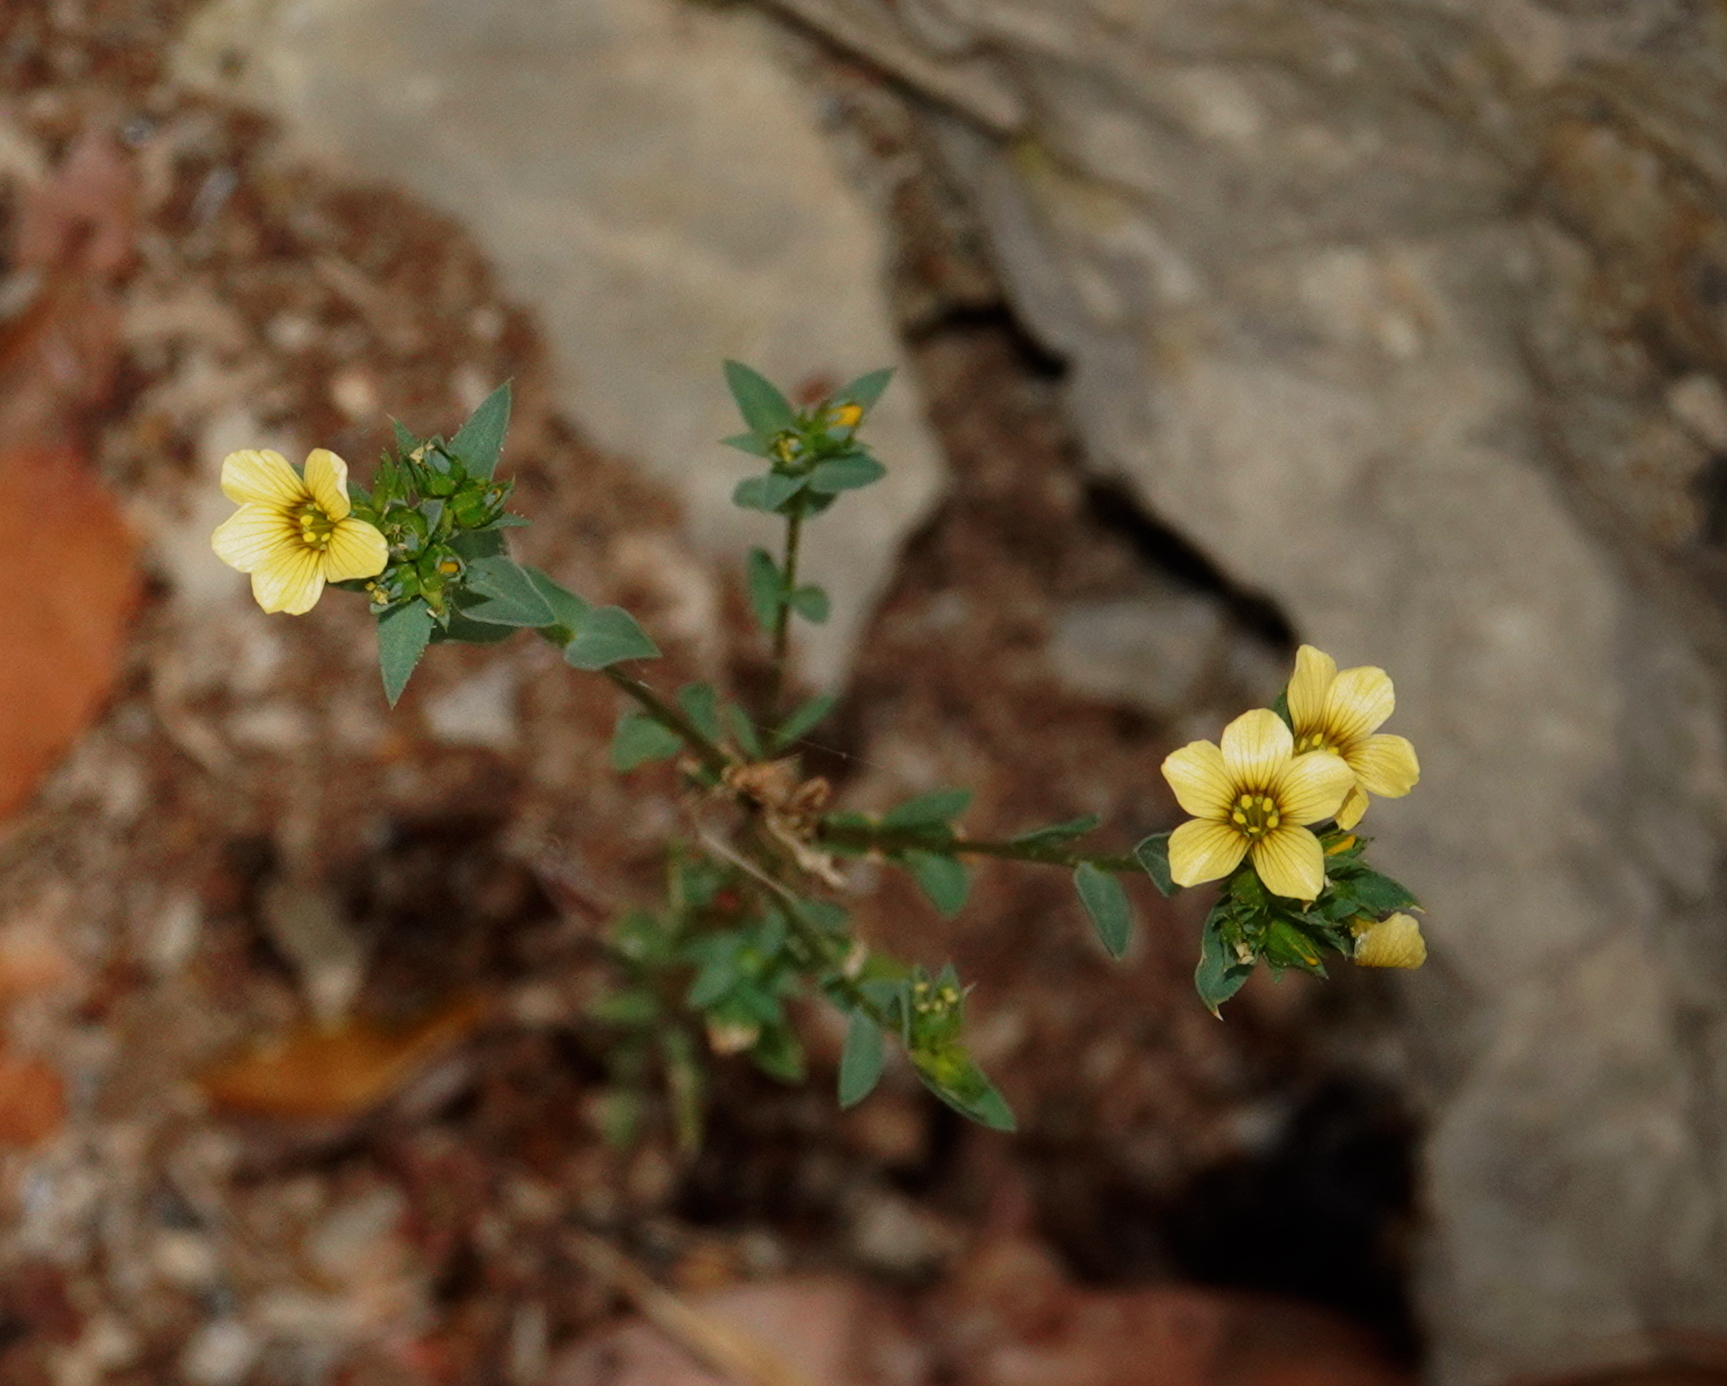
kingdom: Plantae
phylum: Tracheophyta
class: Magnoliopsida
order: Malpighiales
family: Linaceae
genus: Linum
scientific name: Linum strictum
